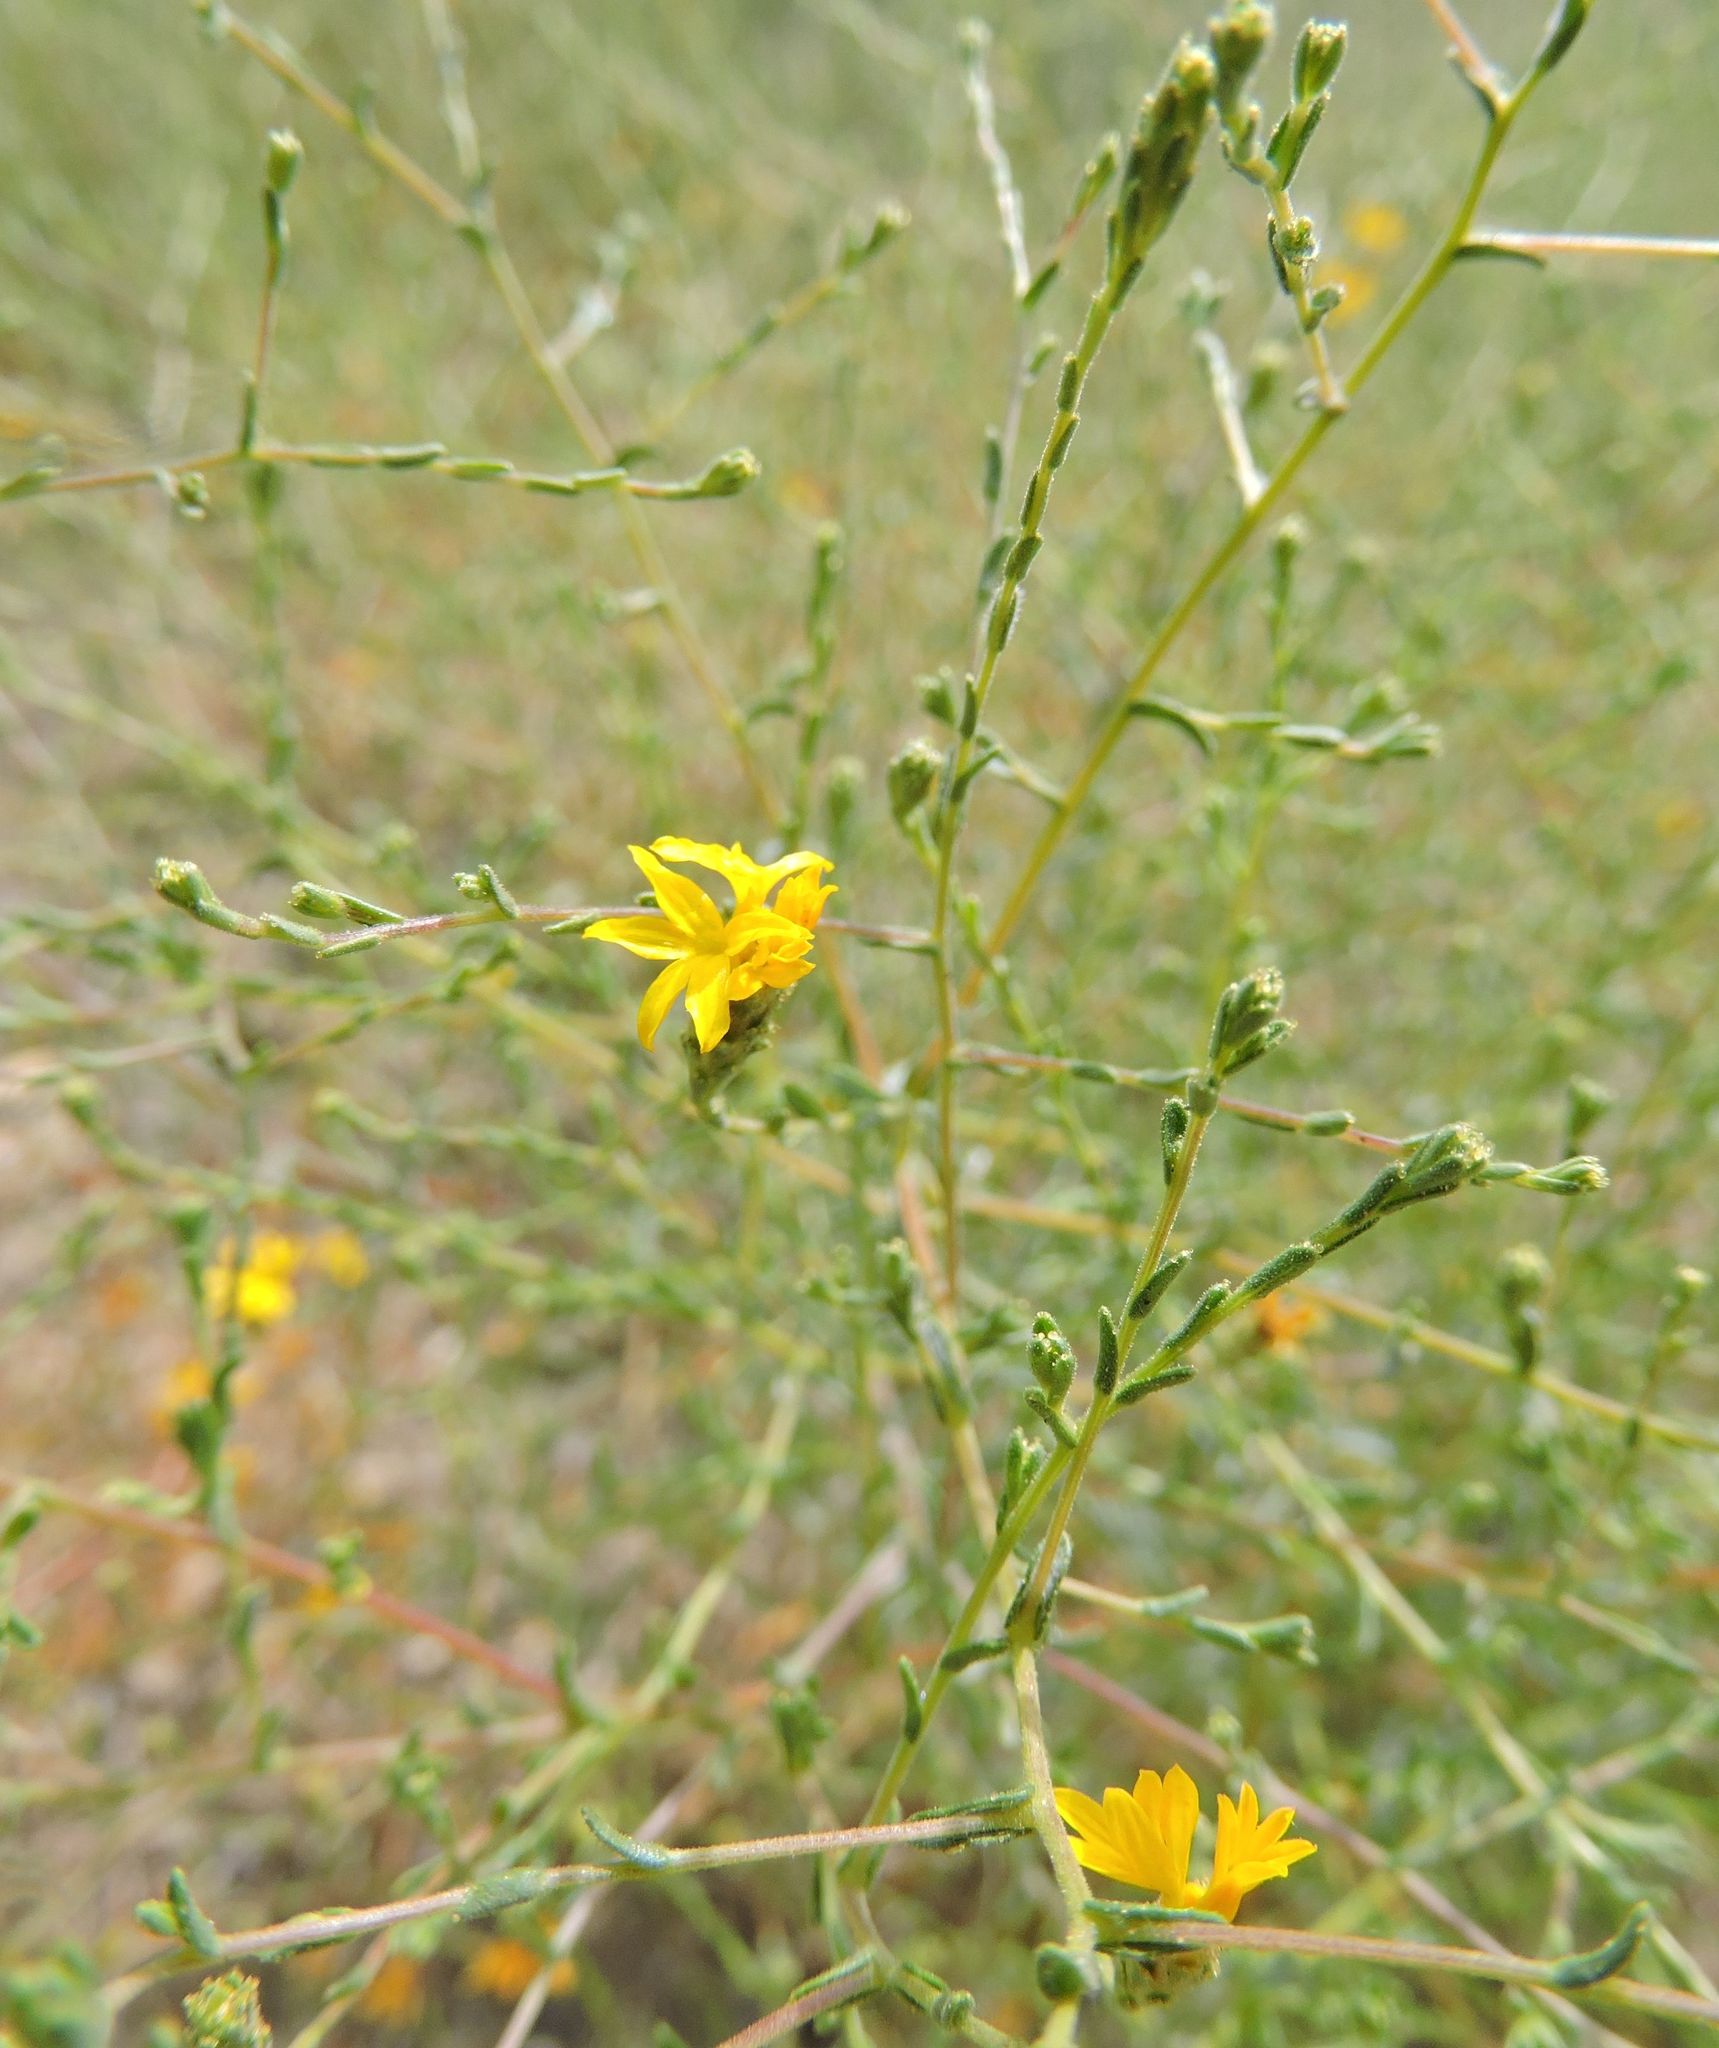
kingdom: Plantae
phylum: Tracheophyta
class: Magnoliopsida
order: Asterales
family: Asteraceae
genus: Lessingia
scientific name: Lessingia glandulifera
